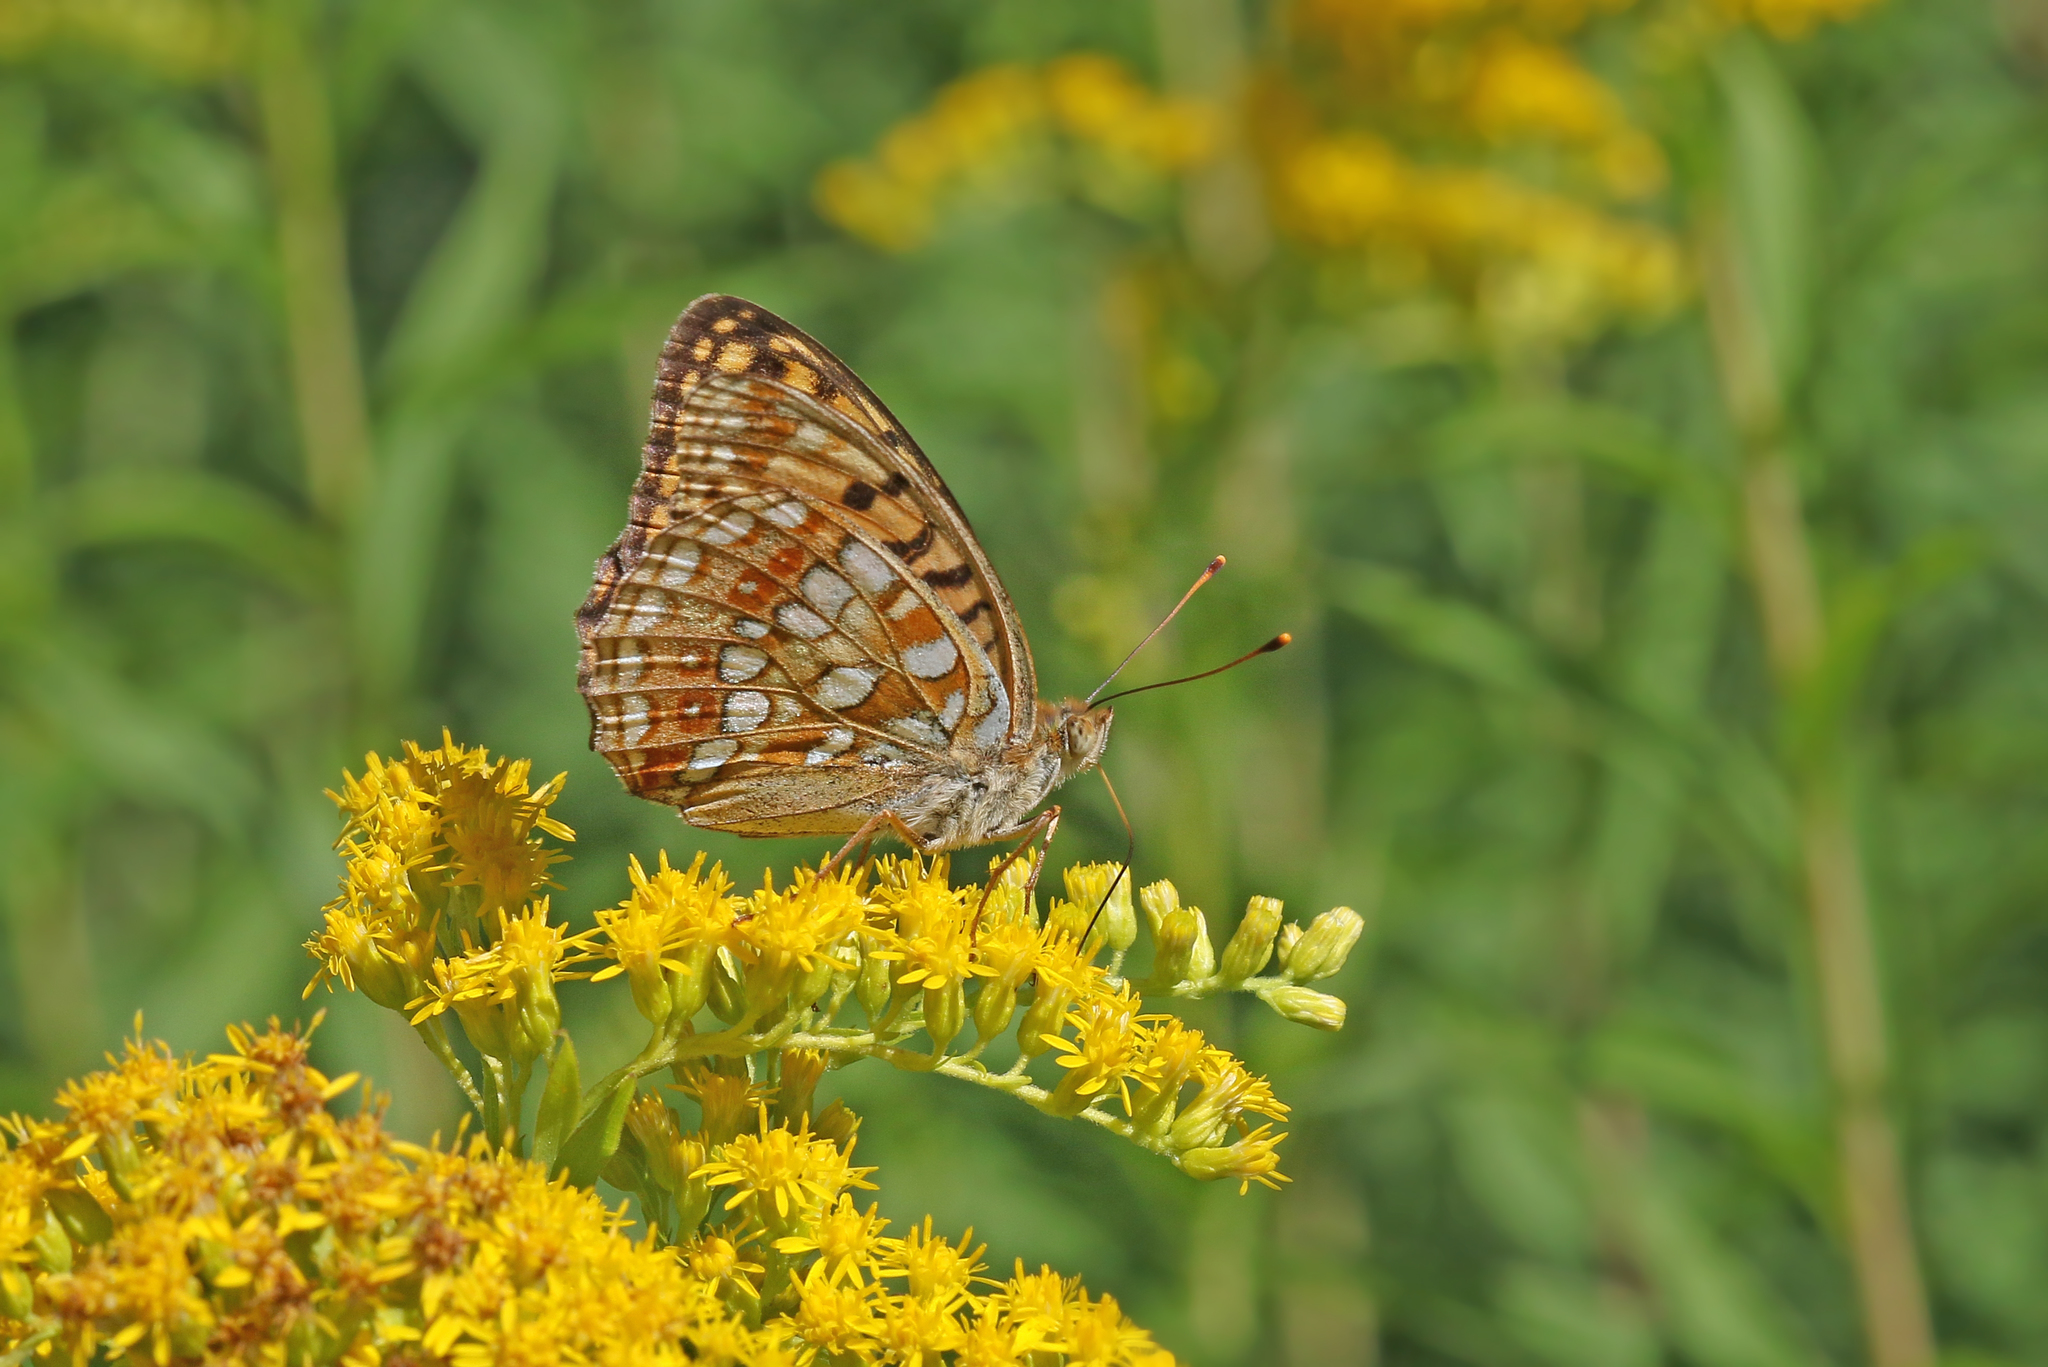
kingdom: Animalia
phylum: Arthropoda
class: Insecta
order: Lepidoptera
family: Nymphalidae
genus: Fabriciana
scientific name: Fabriciana adippe
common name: High brown fritillary
